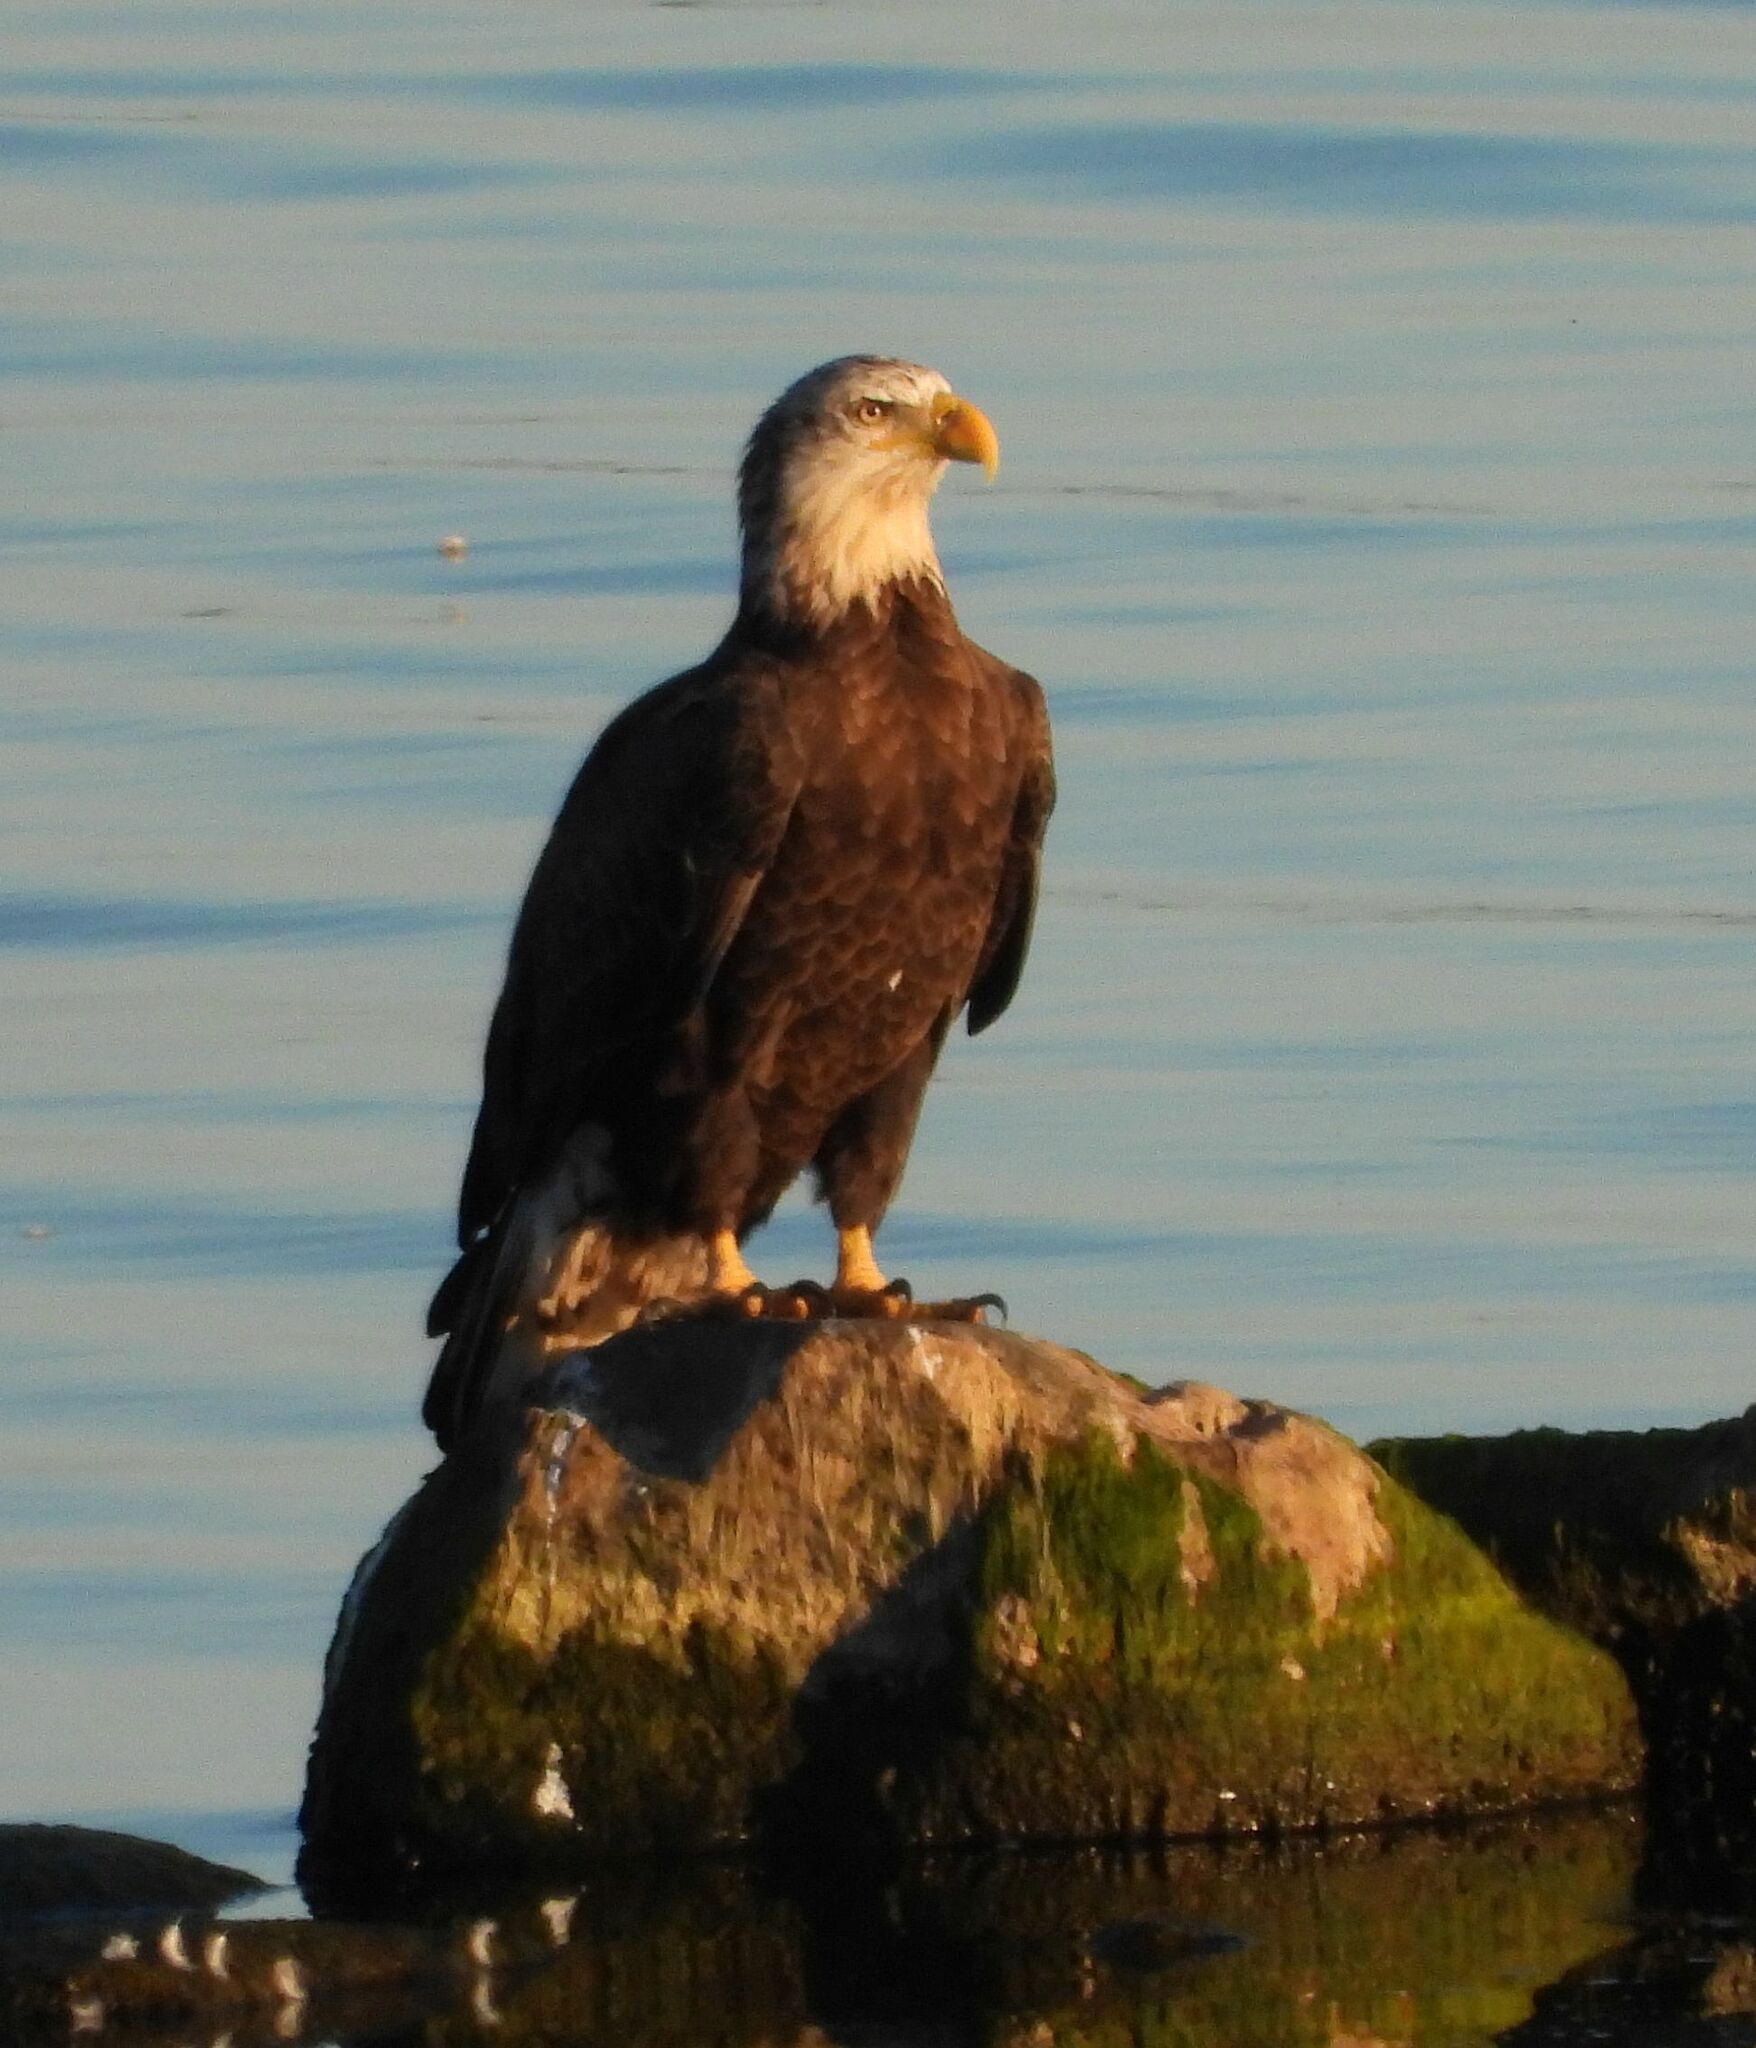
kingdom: Animalia
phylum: Chordata
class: Aves
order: Accipitriformes
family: Accipitridae
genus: Haliaeetus
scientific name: Haliaeetus leucocephalus
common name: Bald eagle
